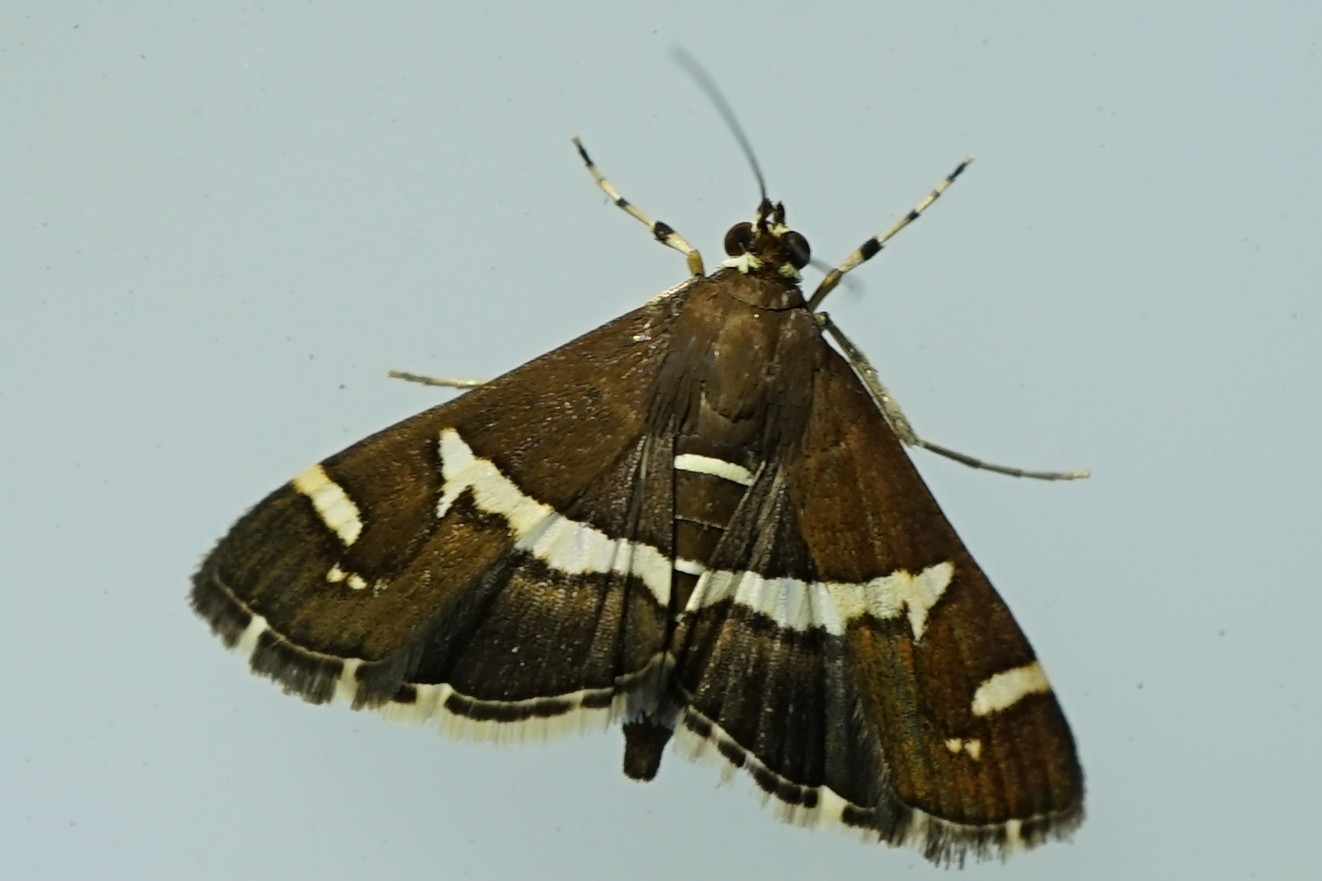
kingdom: Animalia
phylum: Arthropoda
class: Insecta
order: Lepidoptera
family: Crambidae
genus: Spoladea
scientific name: Spoladea recurvalis
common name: Beet webworm moth
